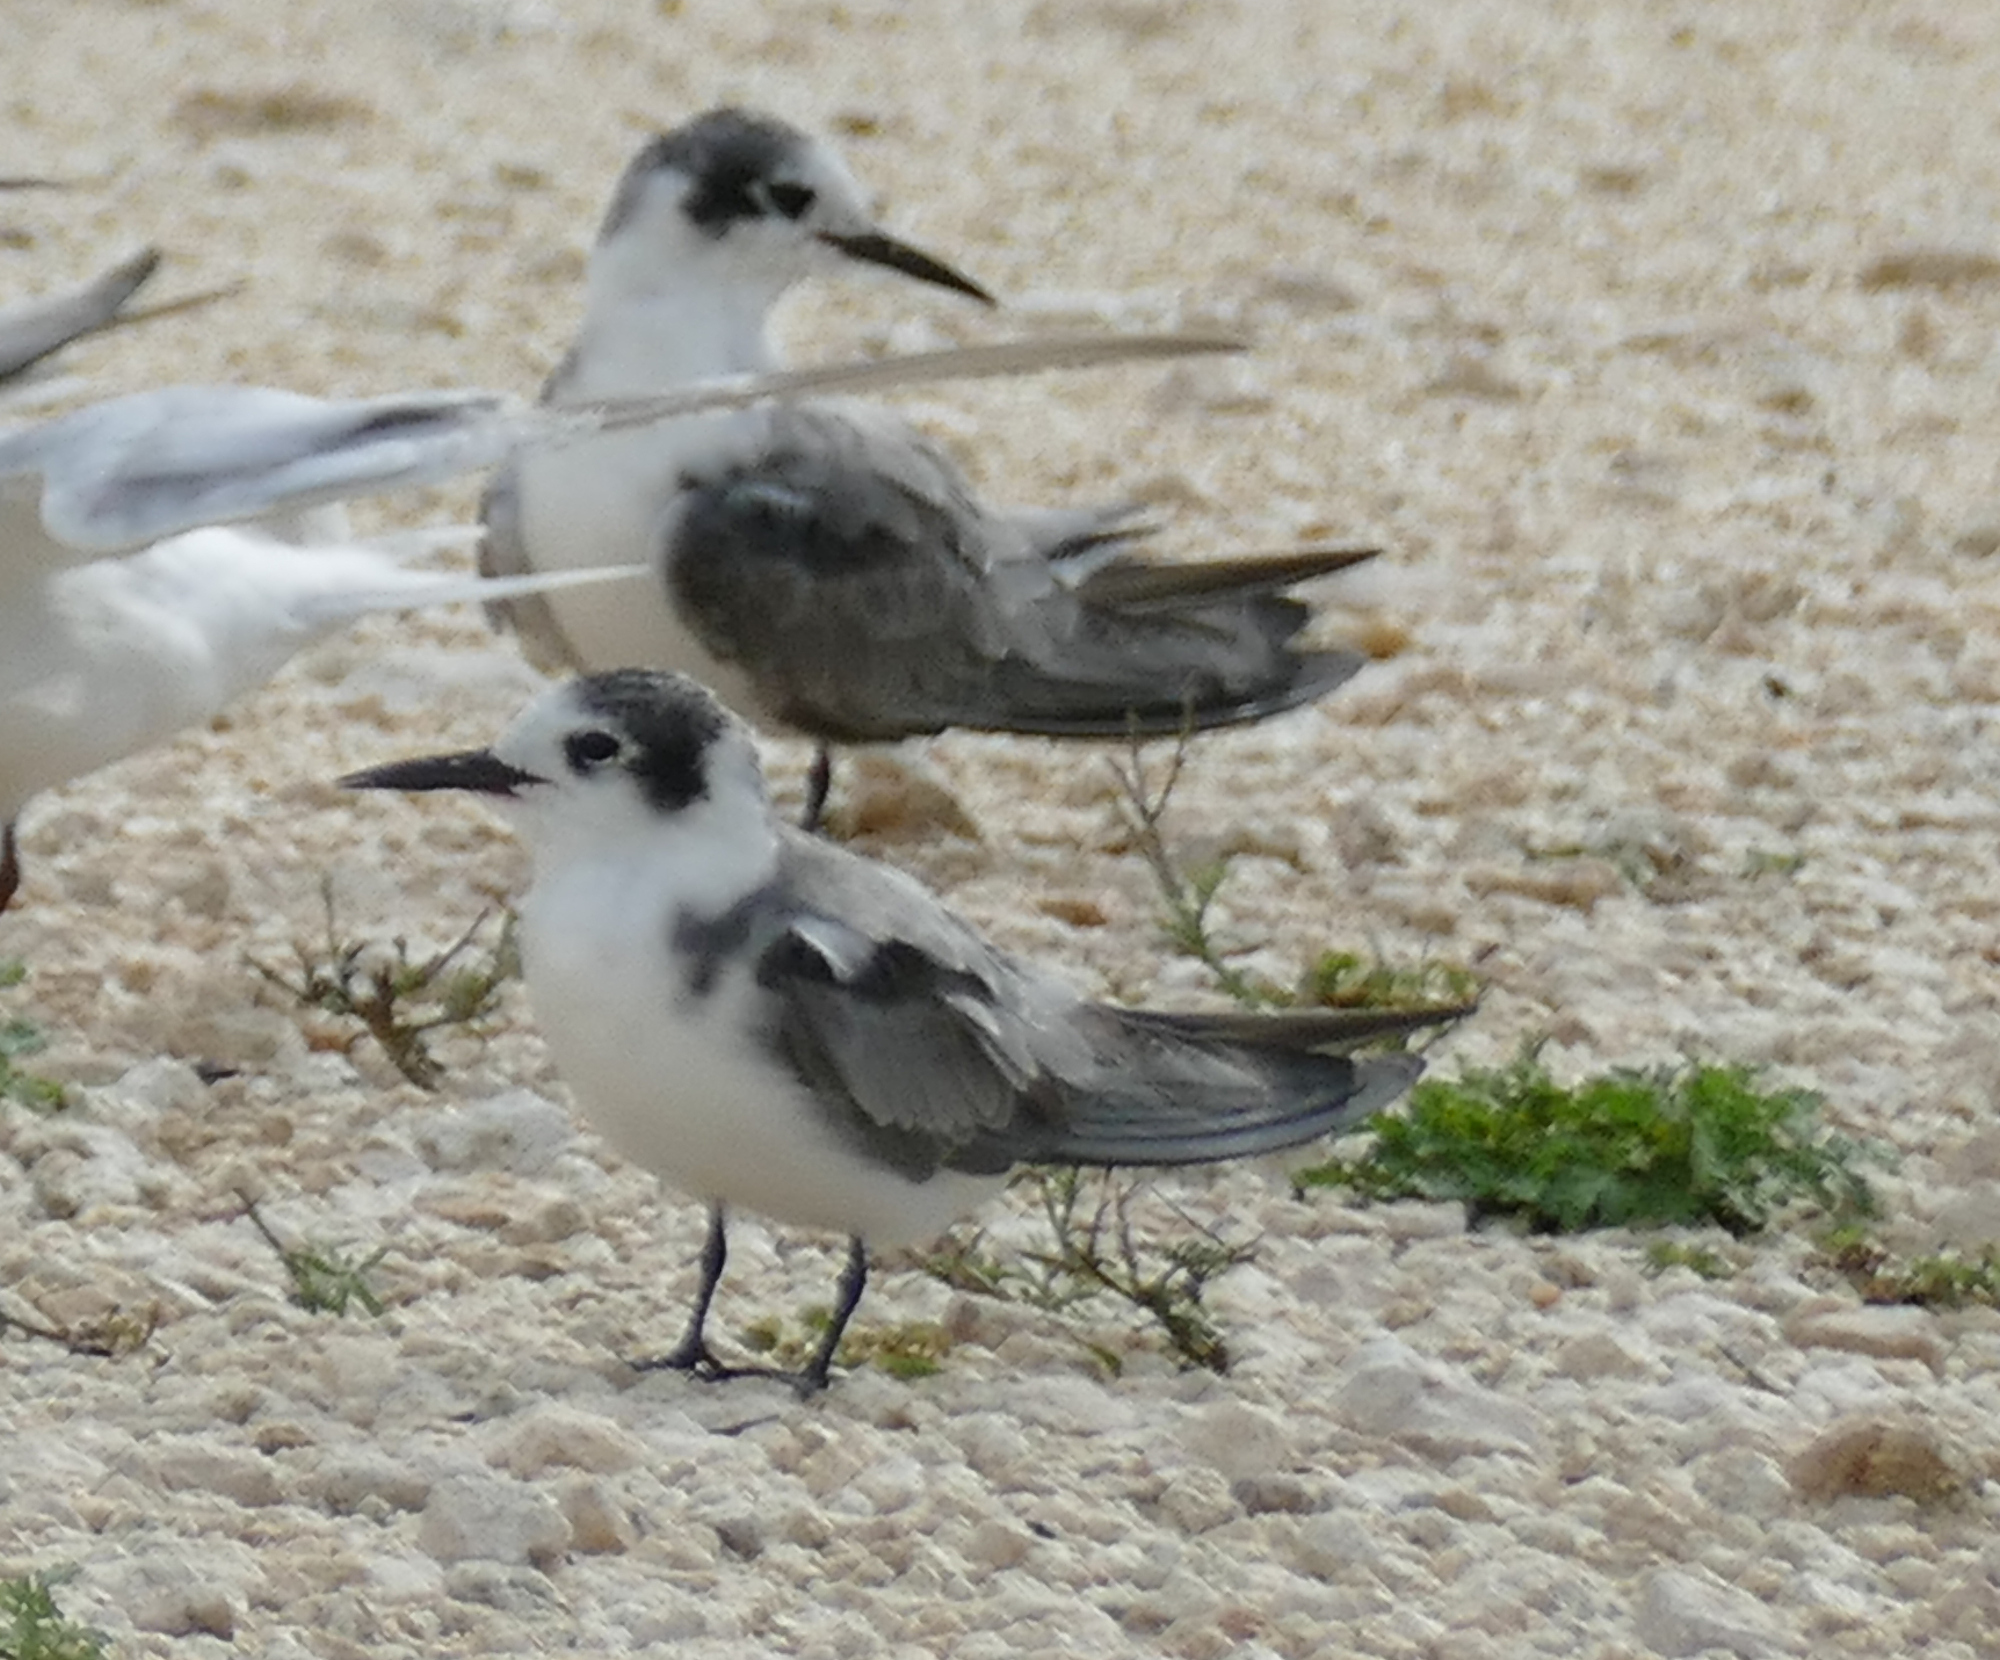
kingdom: Animalia
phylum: Chordata
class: Aves
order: Charadriiformes
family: Laridae
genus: Chlidonias
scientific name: Chlidonias niger
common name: Black tern
